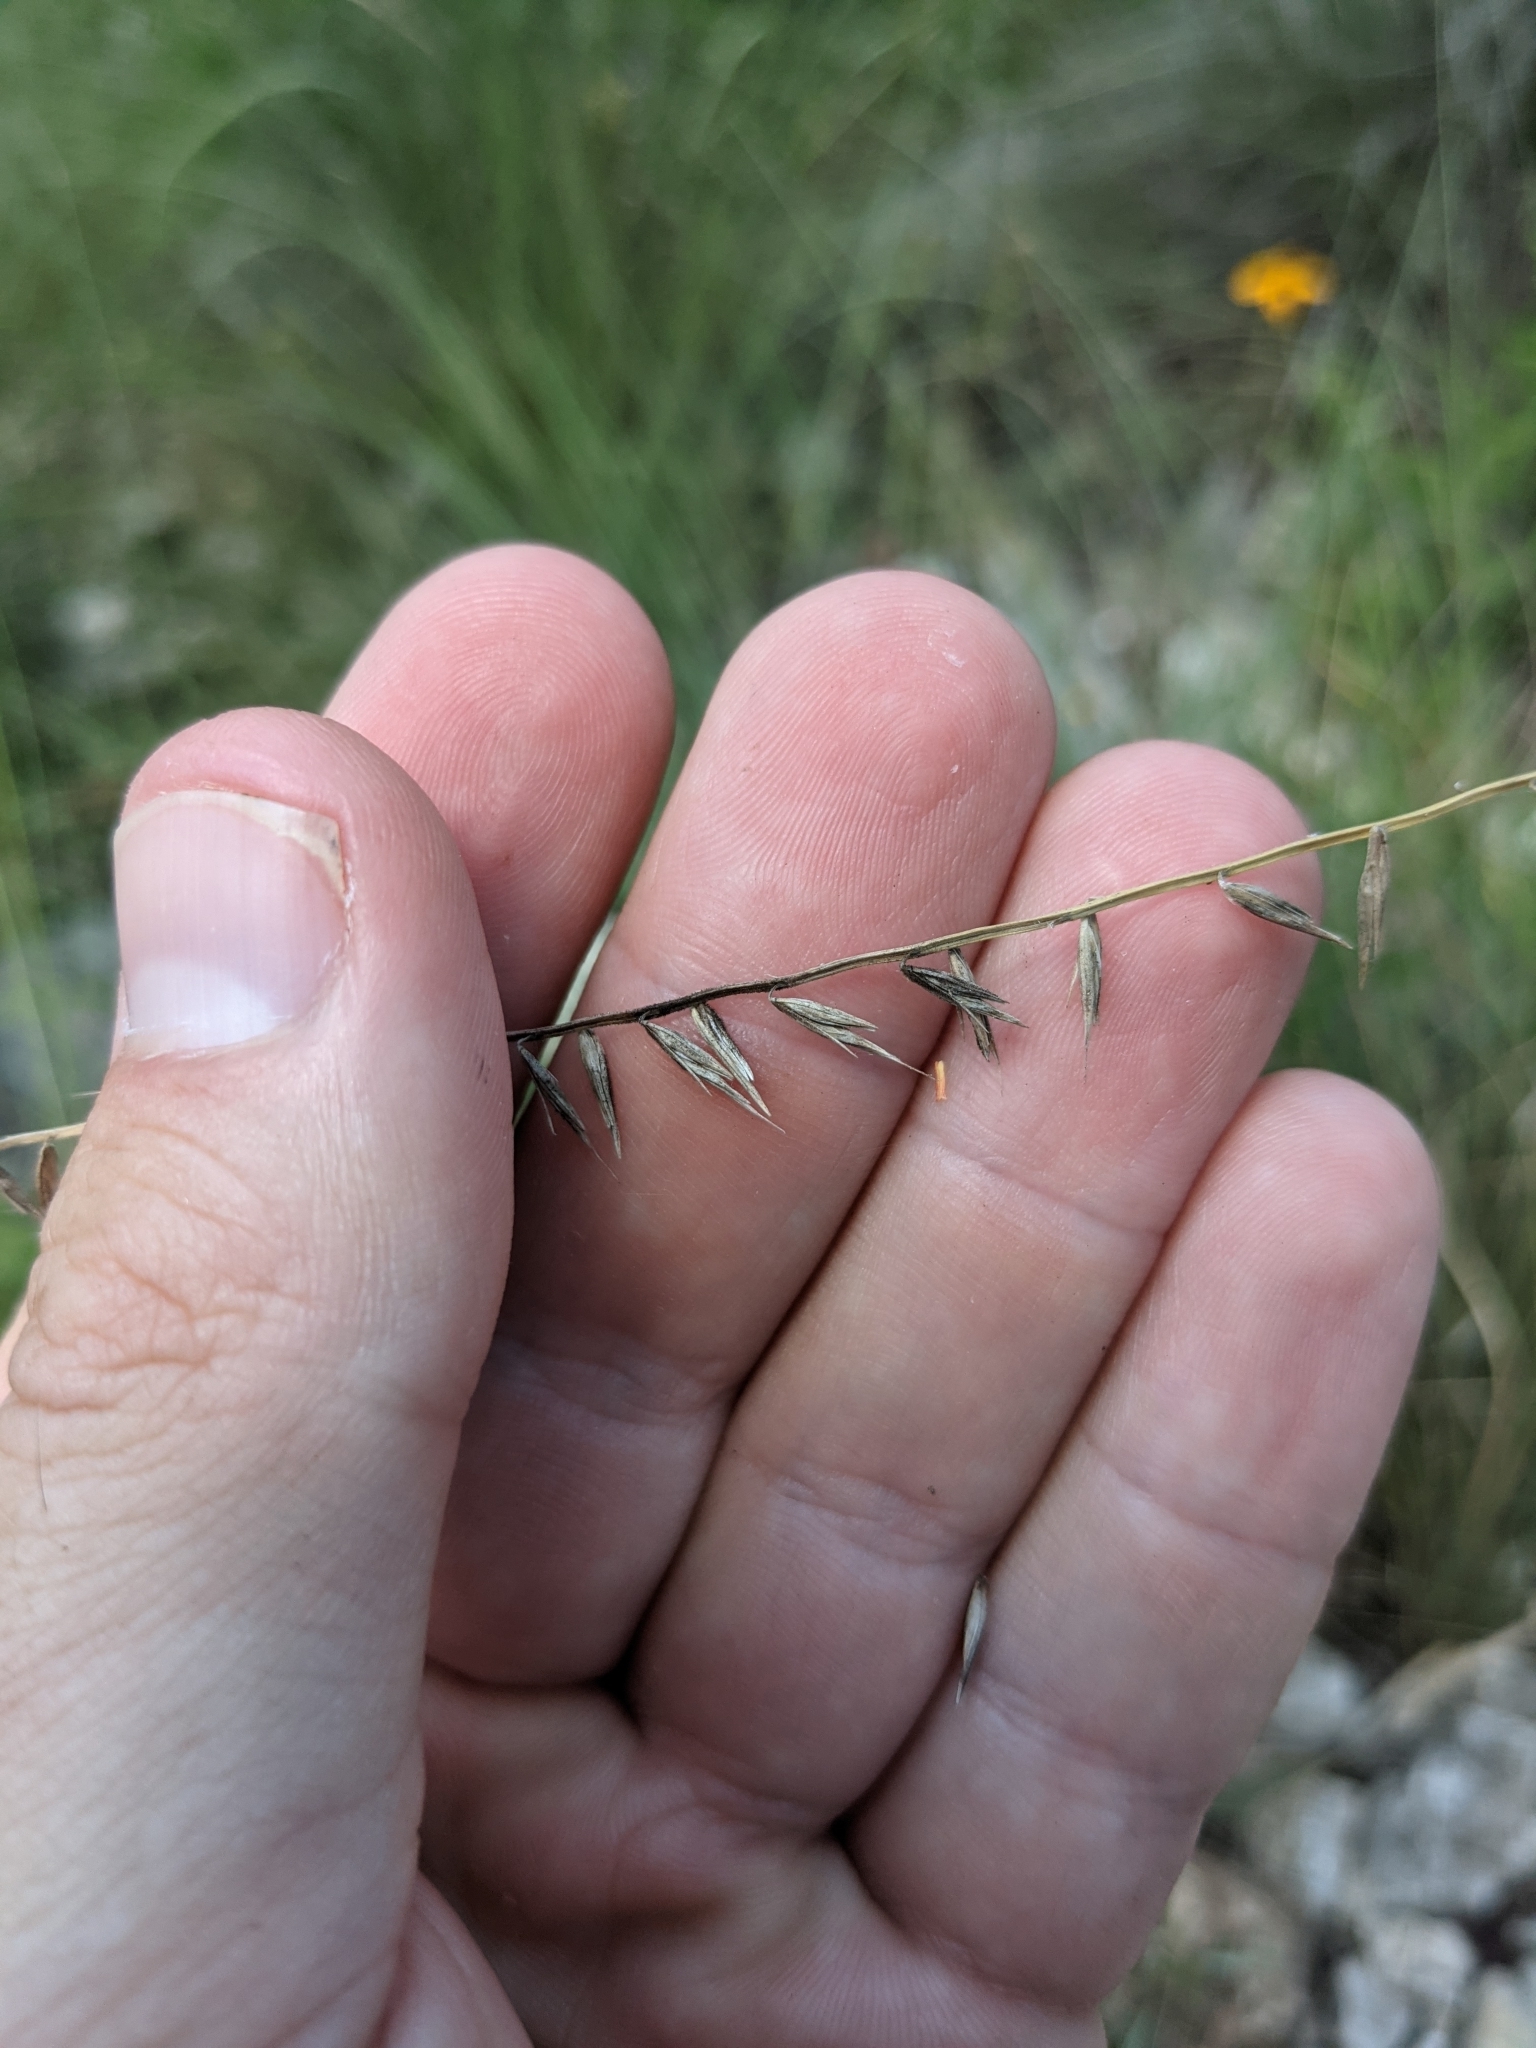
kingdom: Plantae
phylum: Tracheophyta
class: Liliopsida
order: Poales
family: Poaceae
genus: Bouteloua
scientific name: Bouteloua curtipendula
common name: Side-oats grama
